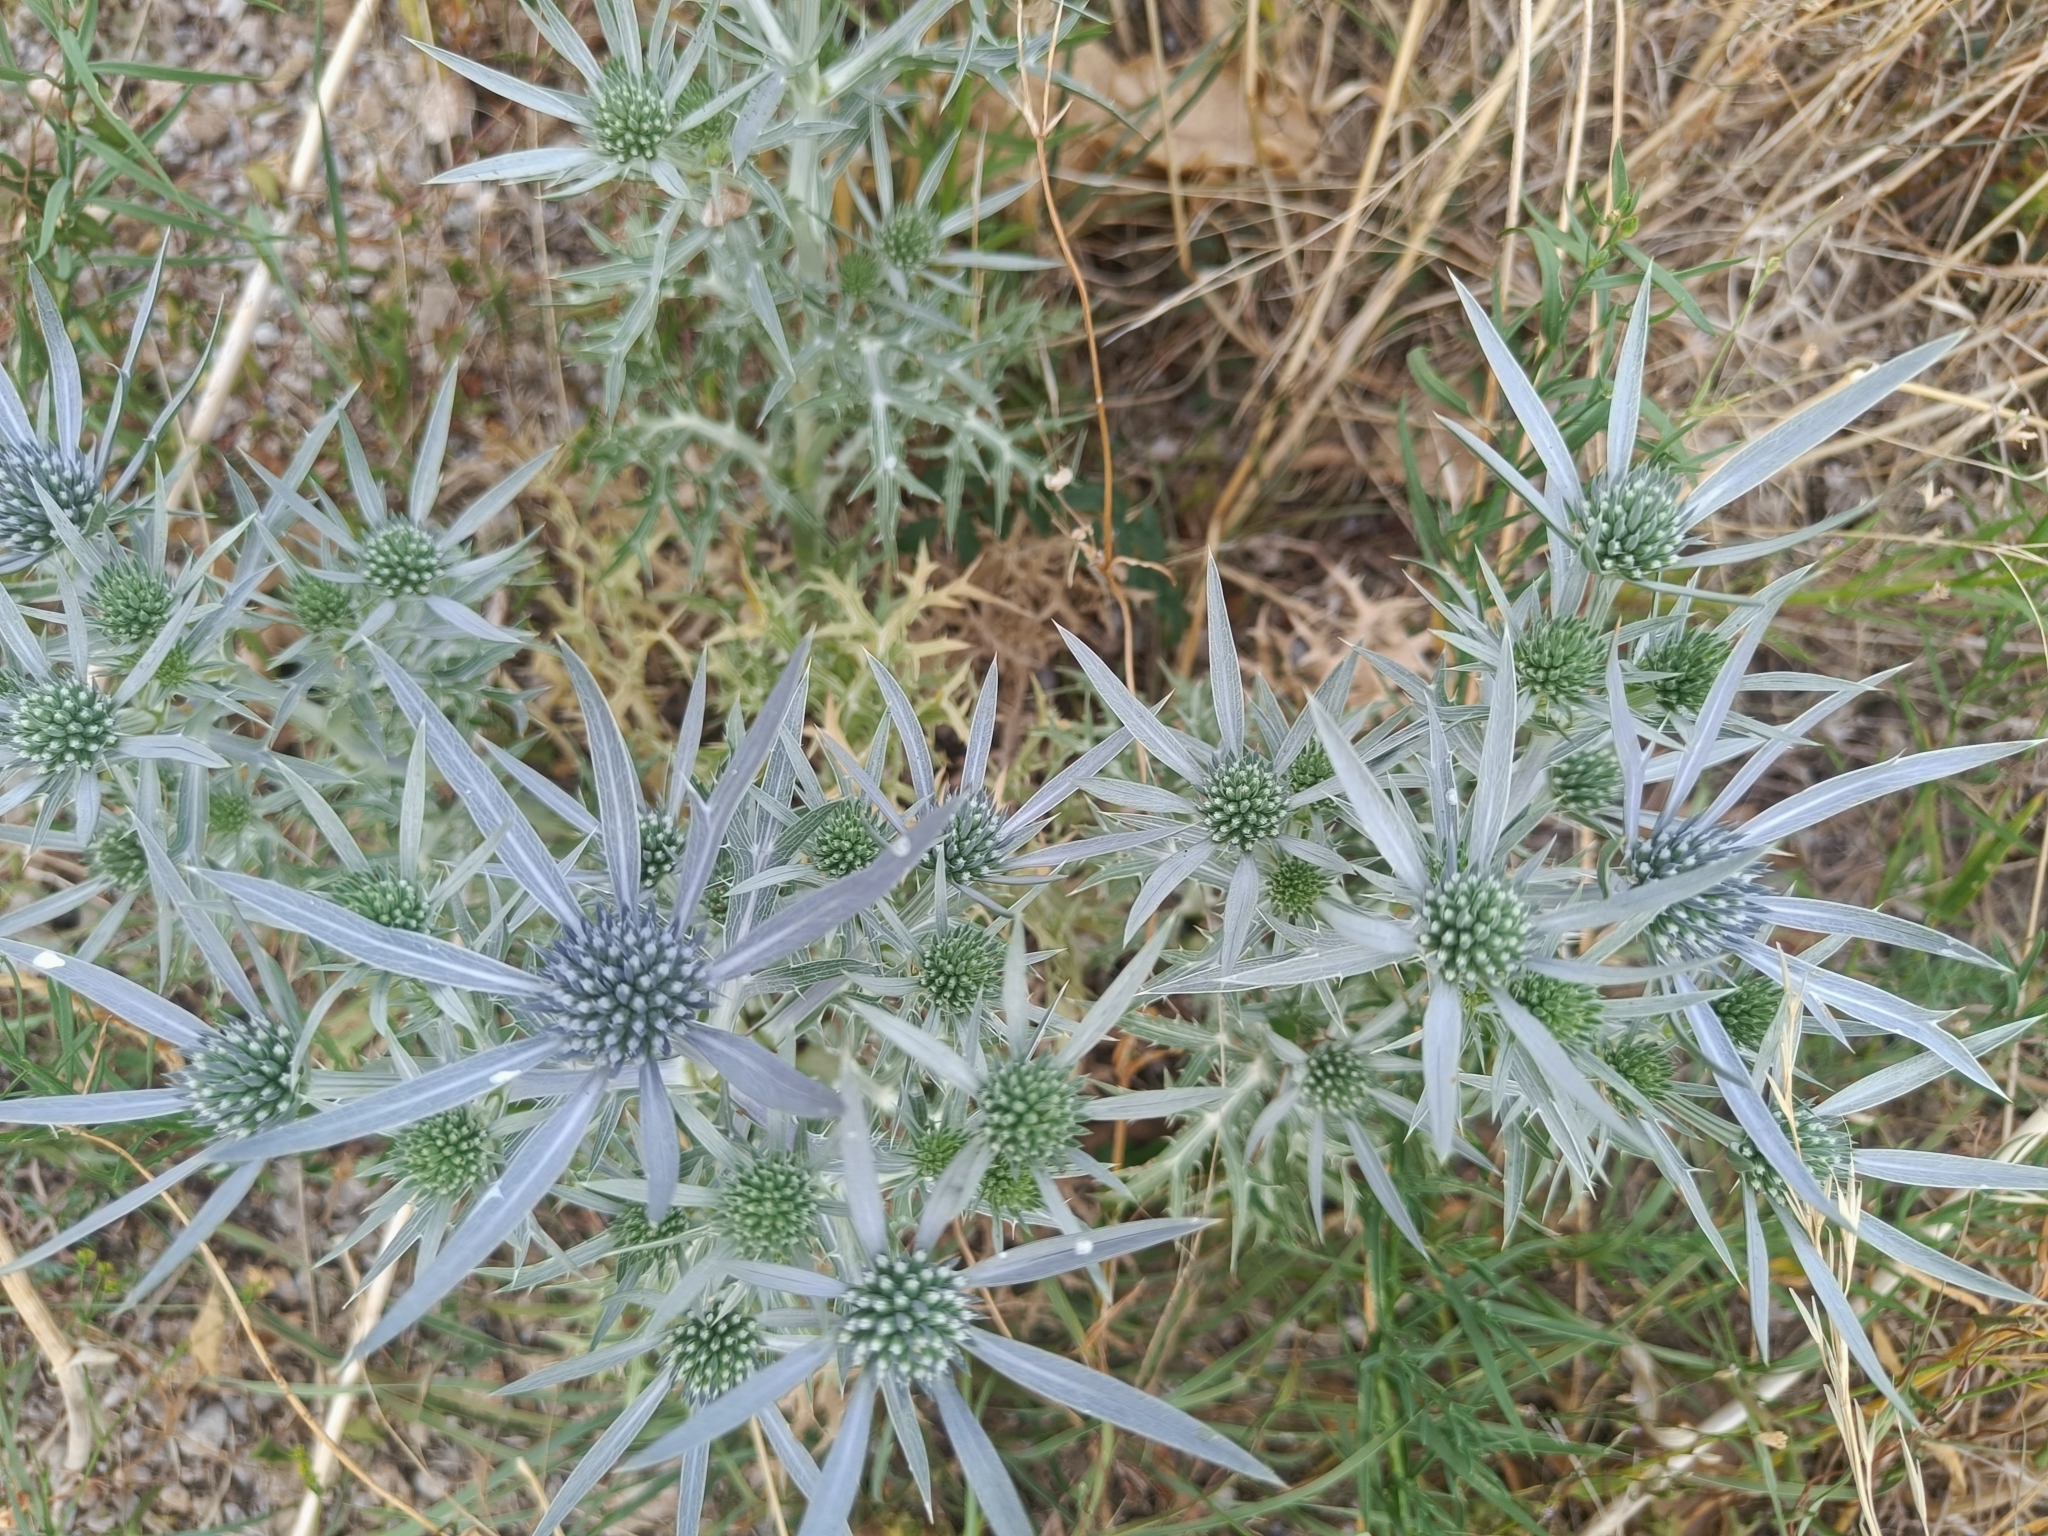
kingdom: Plantae
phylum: Tracheophyta
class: Magnoliopsida
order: Apiales
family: Apiaceae
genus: Eryngium
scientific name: Eryngium amethystinum
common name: Amethyst eryngo
